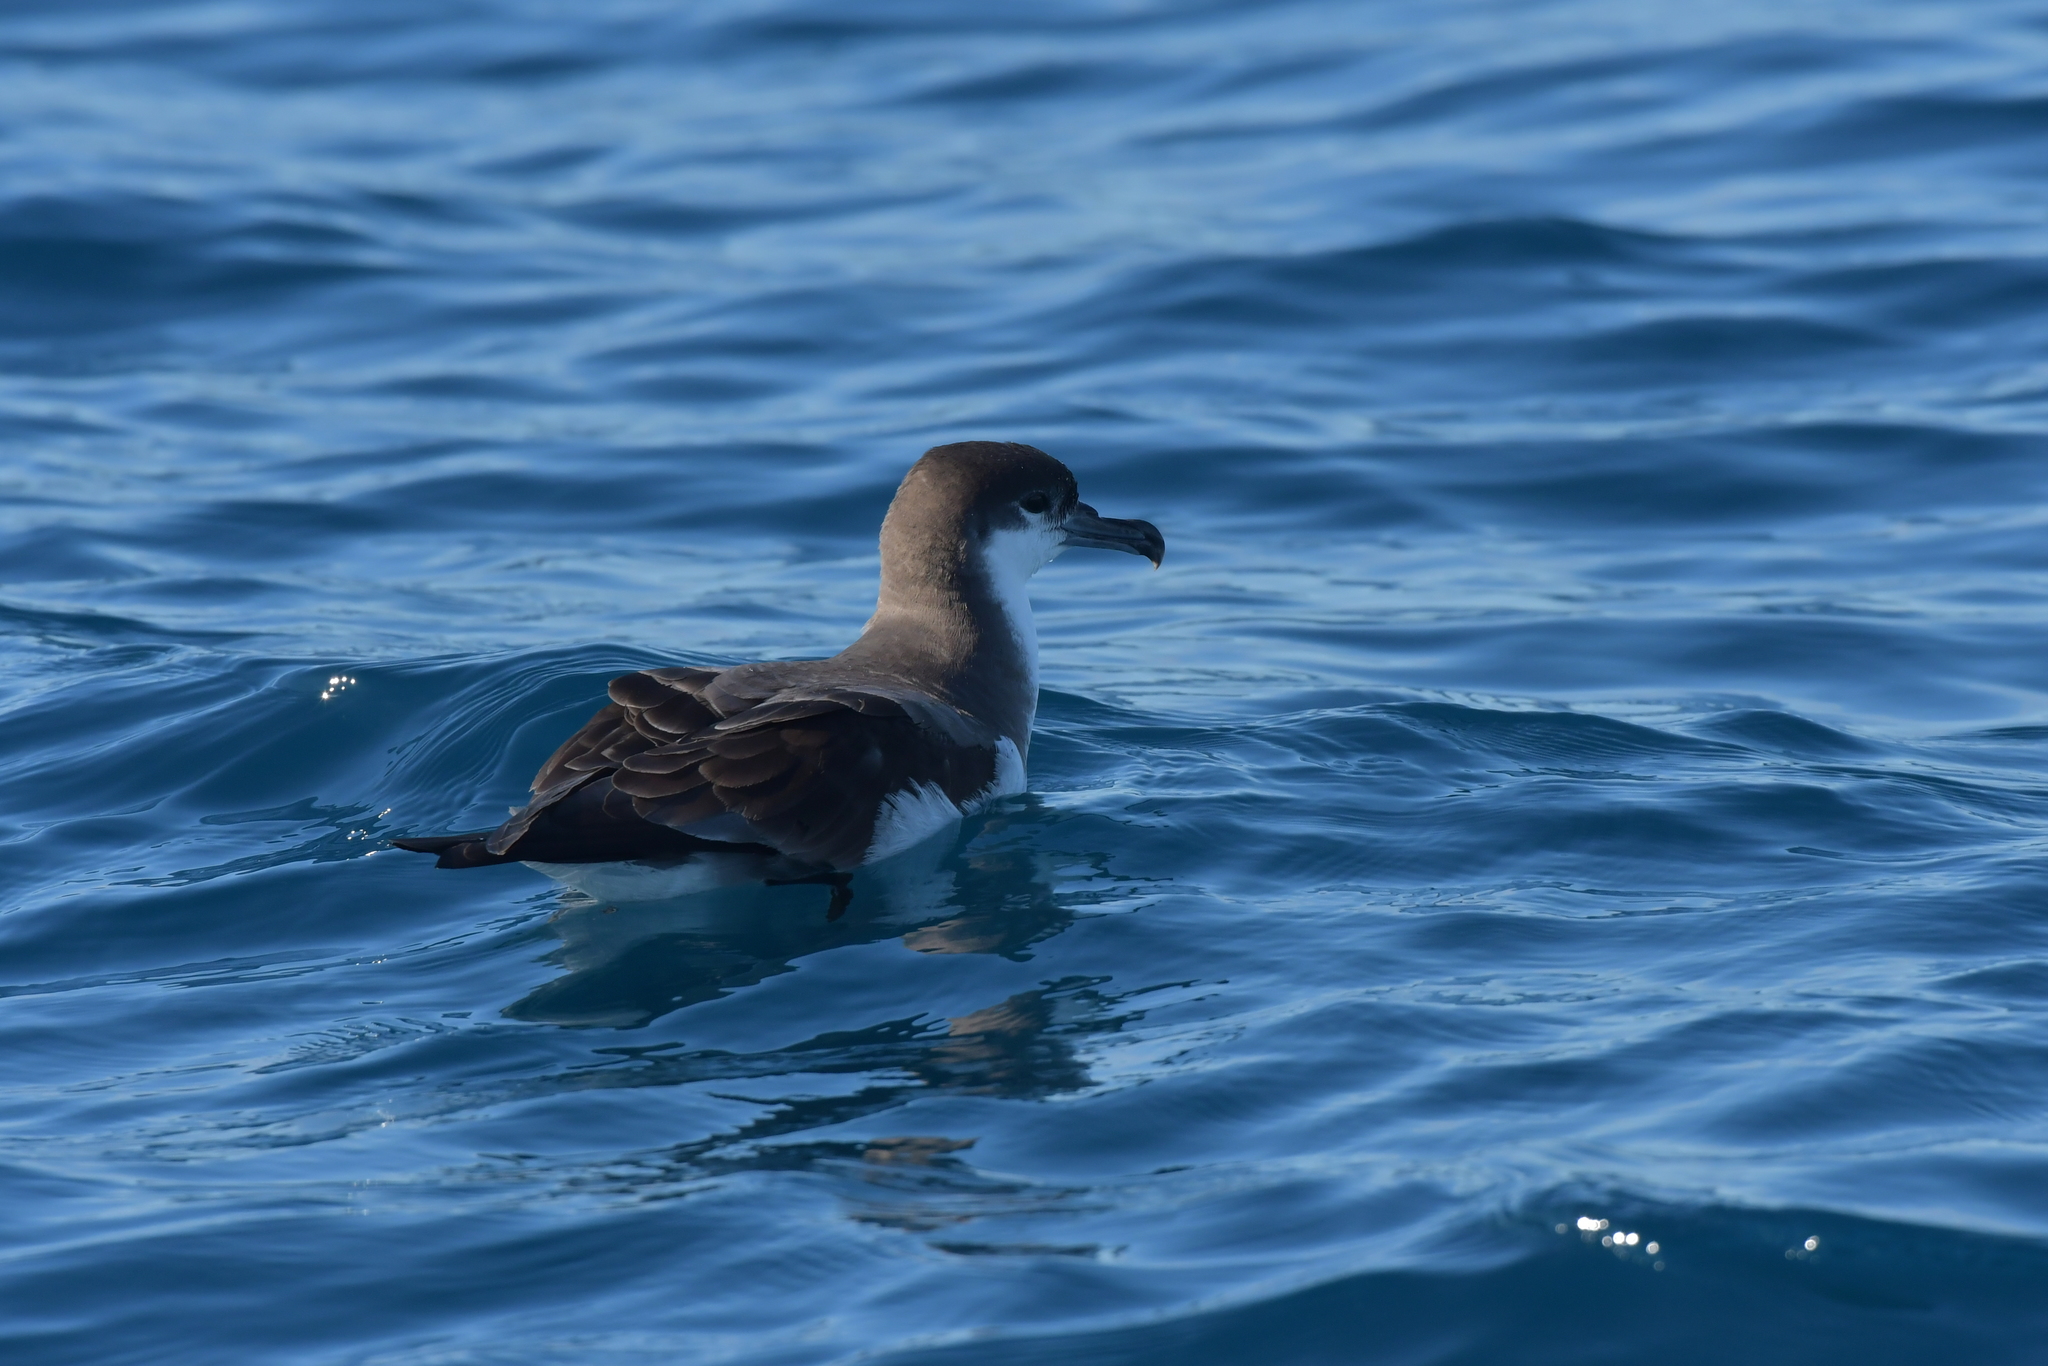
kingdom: Animalia
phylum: Chordata
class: Aves
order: Procellariiformes
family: Procellariidae
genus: Puffinus
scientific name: Puffinus bulleri
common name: Buller's shearwater
